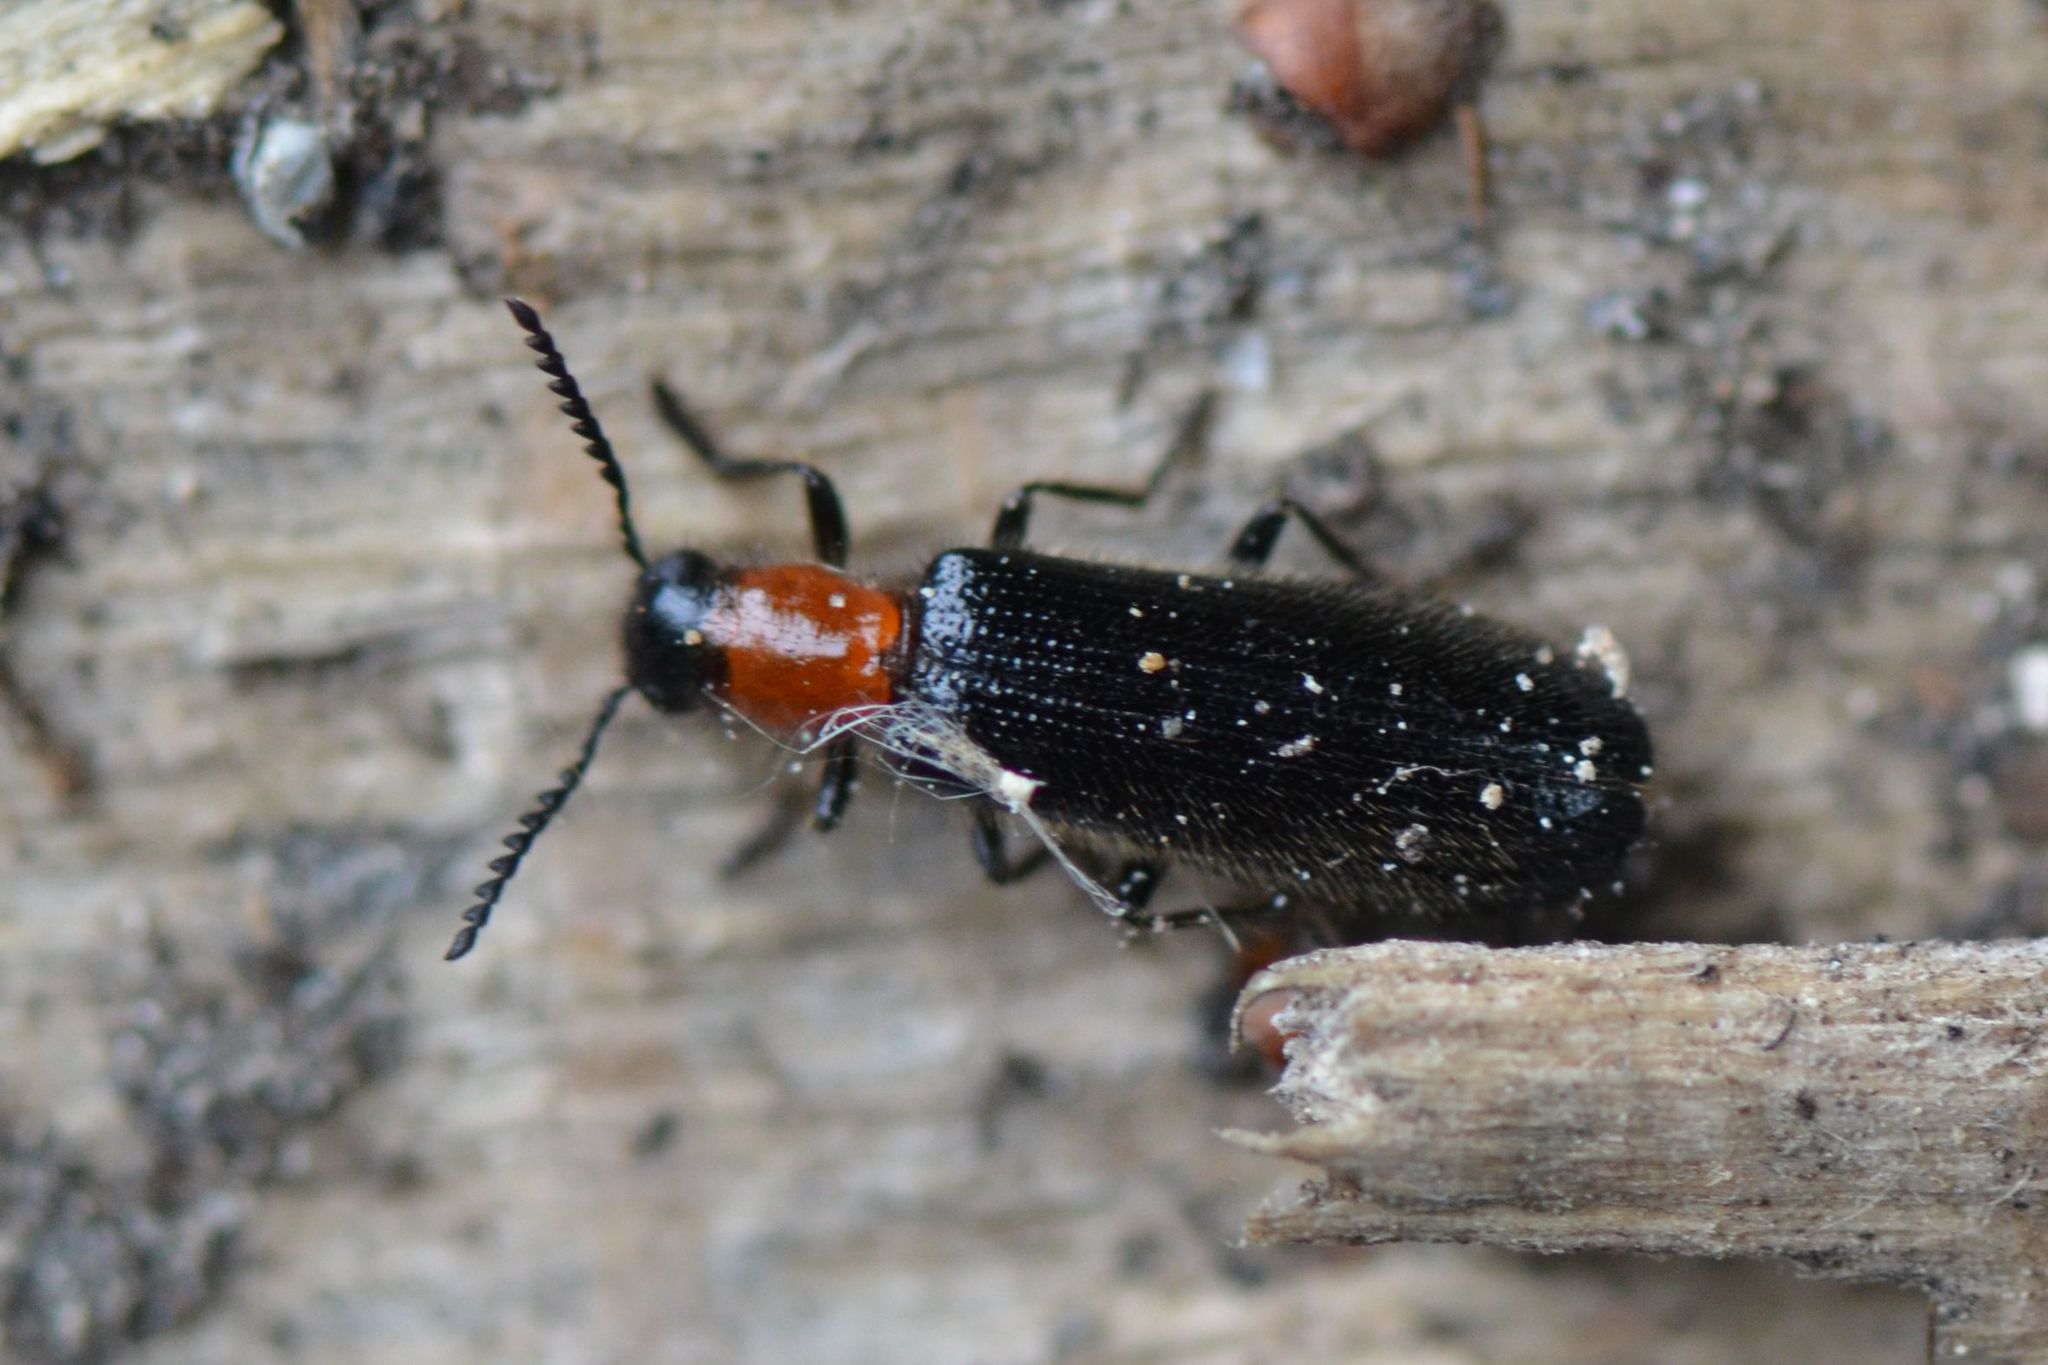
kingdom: Animalia
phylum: Arthropoda
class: Insecta
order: Coleoptera
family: Cleridae
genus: Tillus
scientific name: Tillus elongatus
